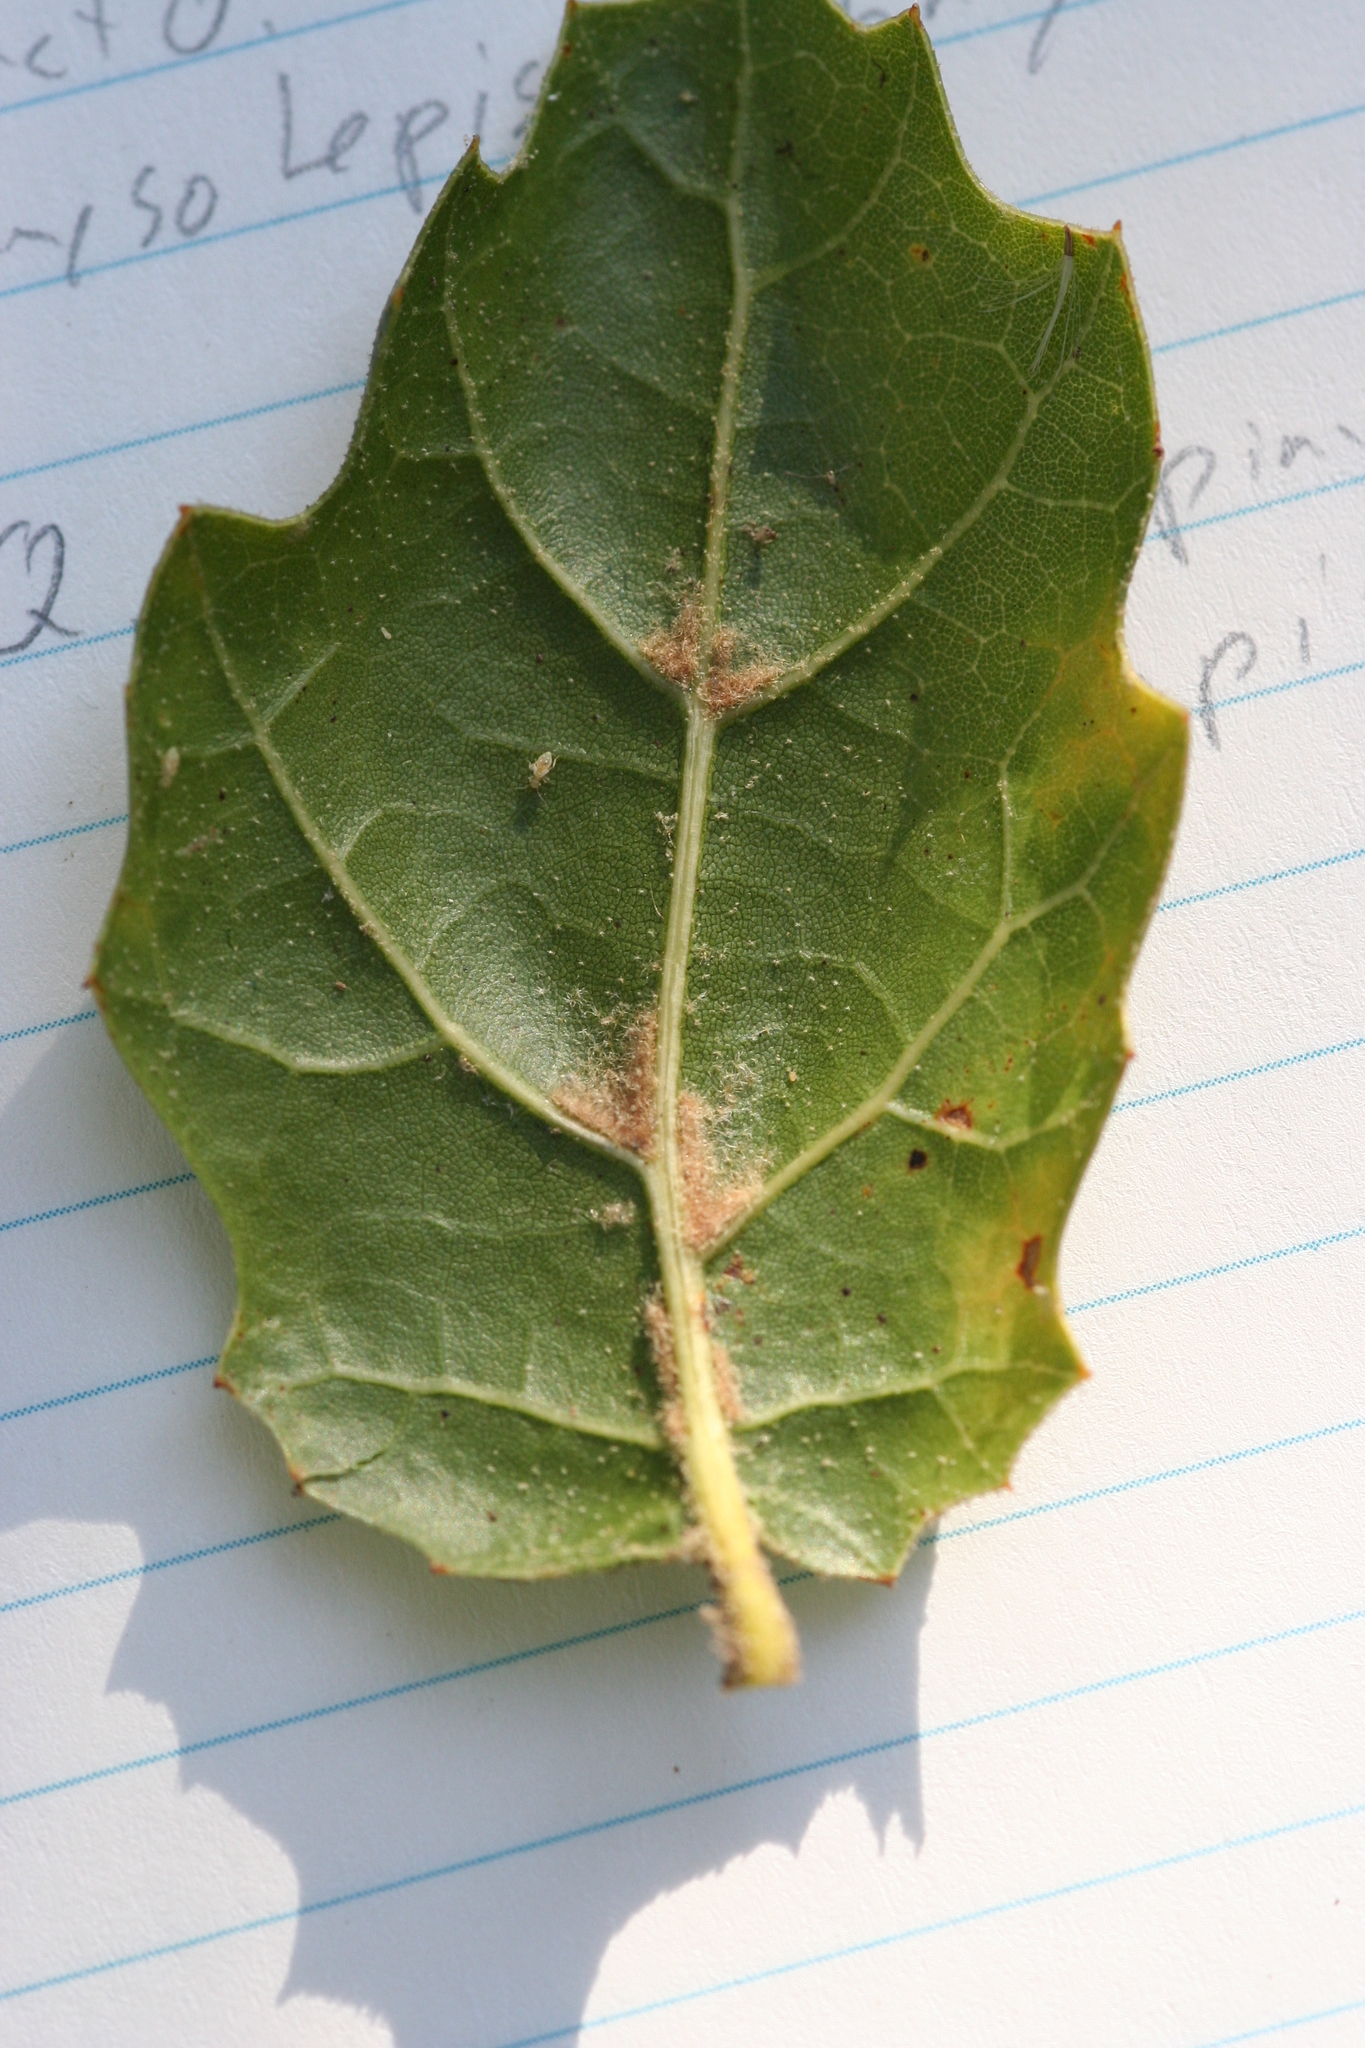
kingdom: Plantae
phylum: Tracheophyta
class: Magnoliopsida
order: Fagales
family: Fagaceae
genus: Quercus
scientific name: Quercus agrifolia
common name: California live oak
